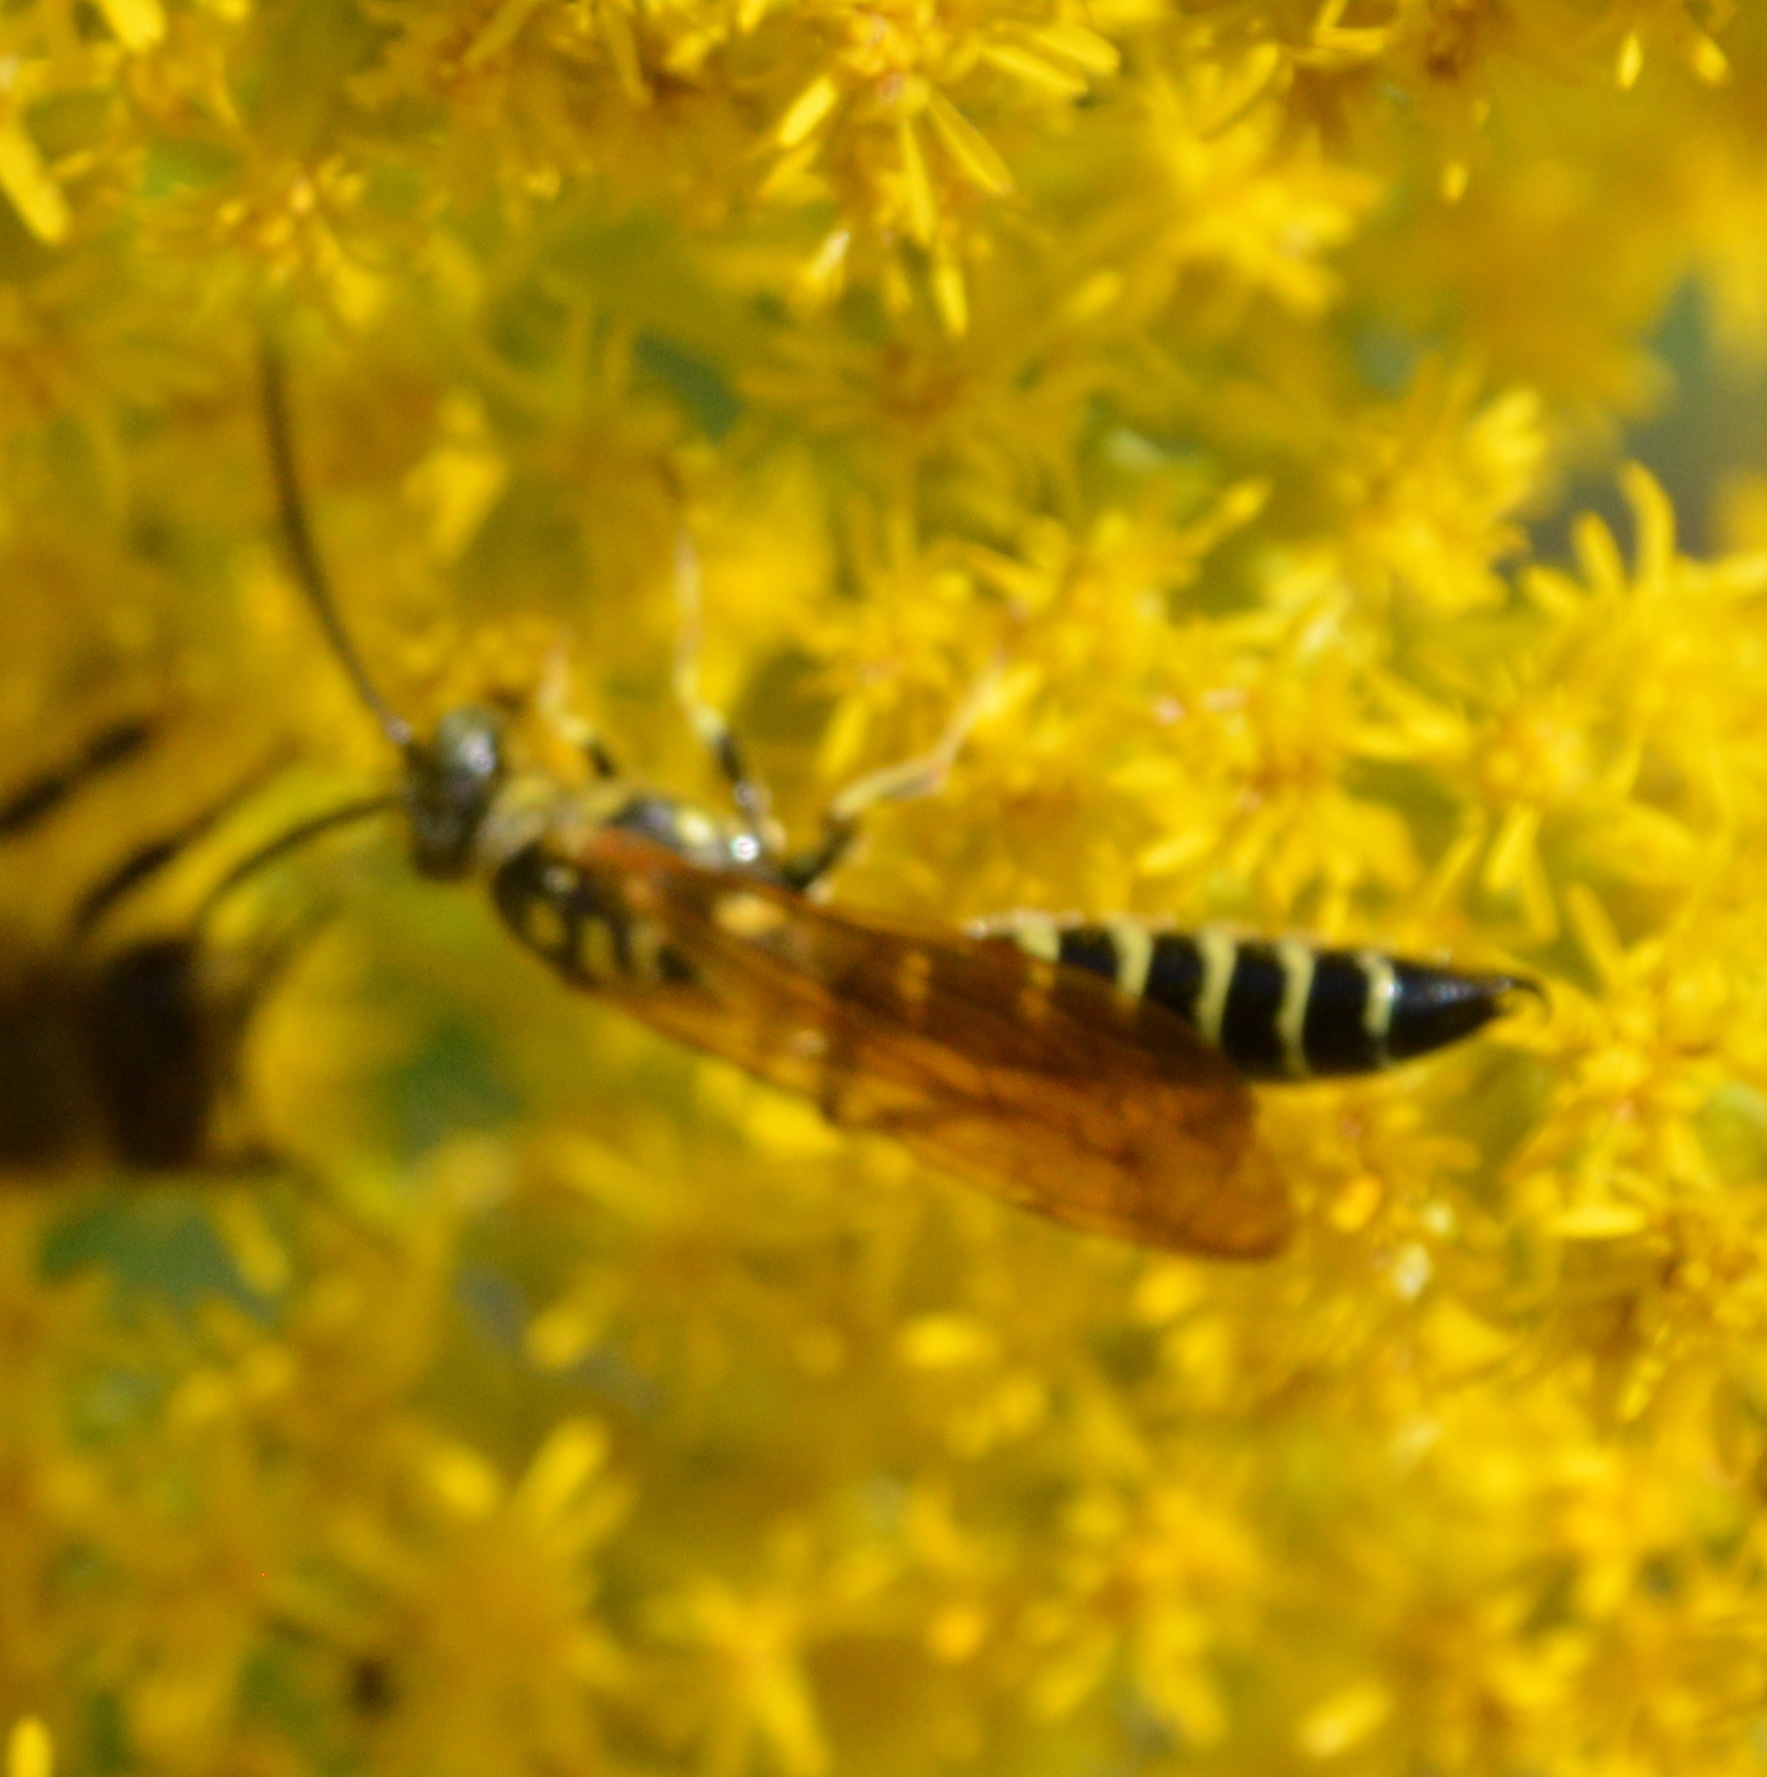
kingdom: Animalia
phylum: Arthropoda
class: Insecta
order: Hymenoptera
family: Tiphiidae
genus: Myzinum
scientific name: Myzinum
